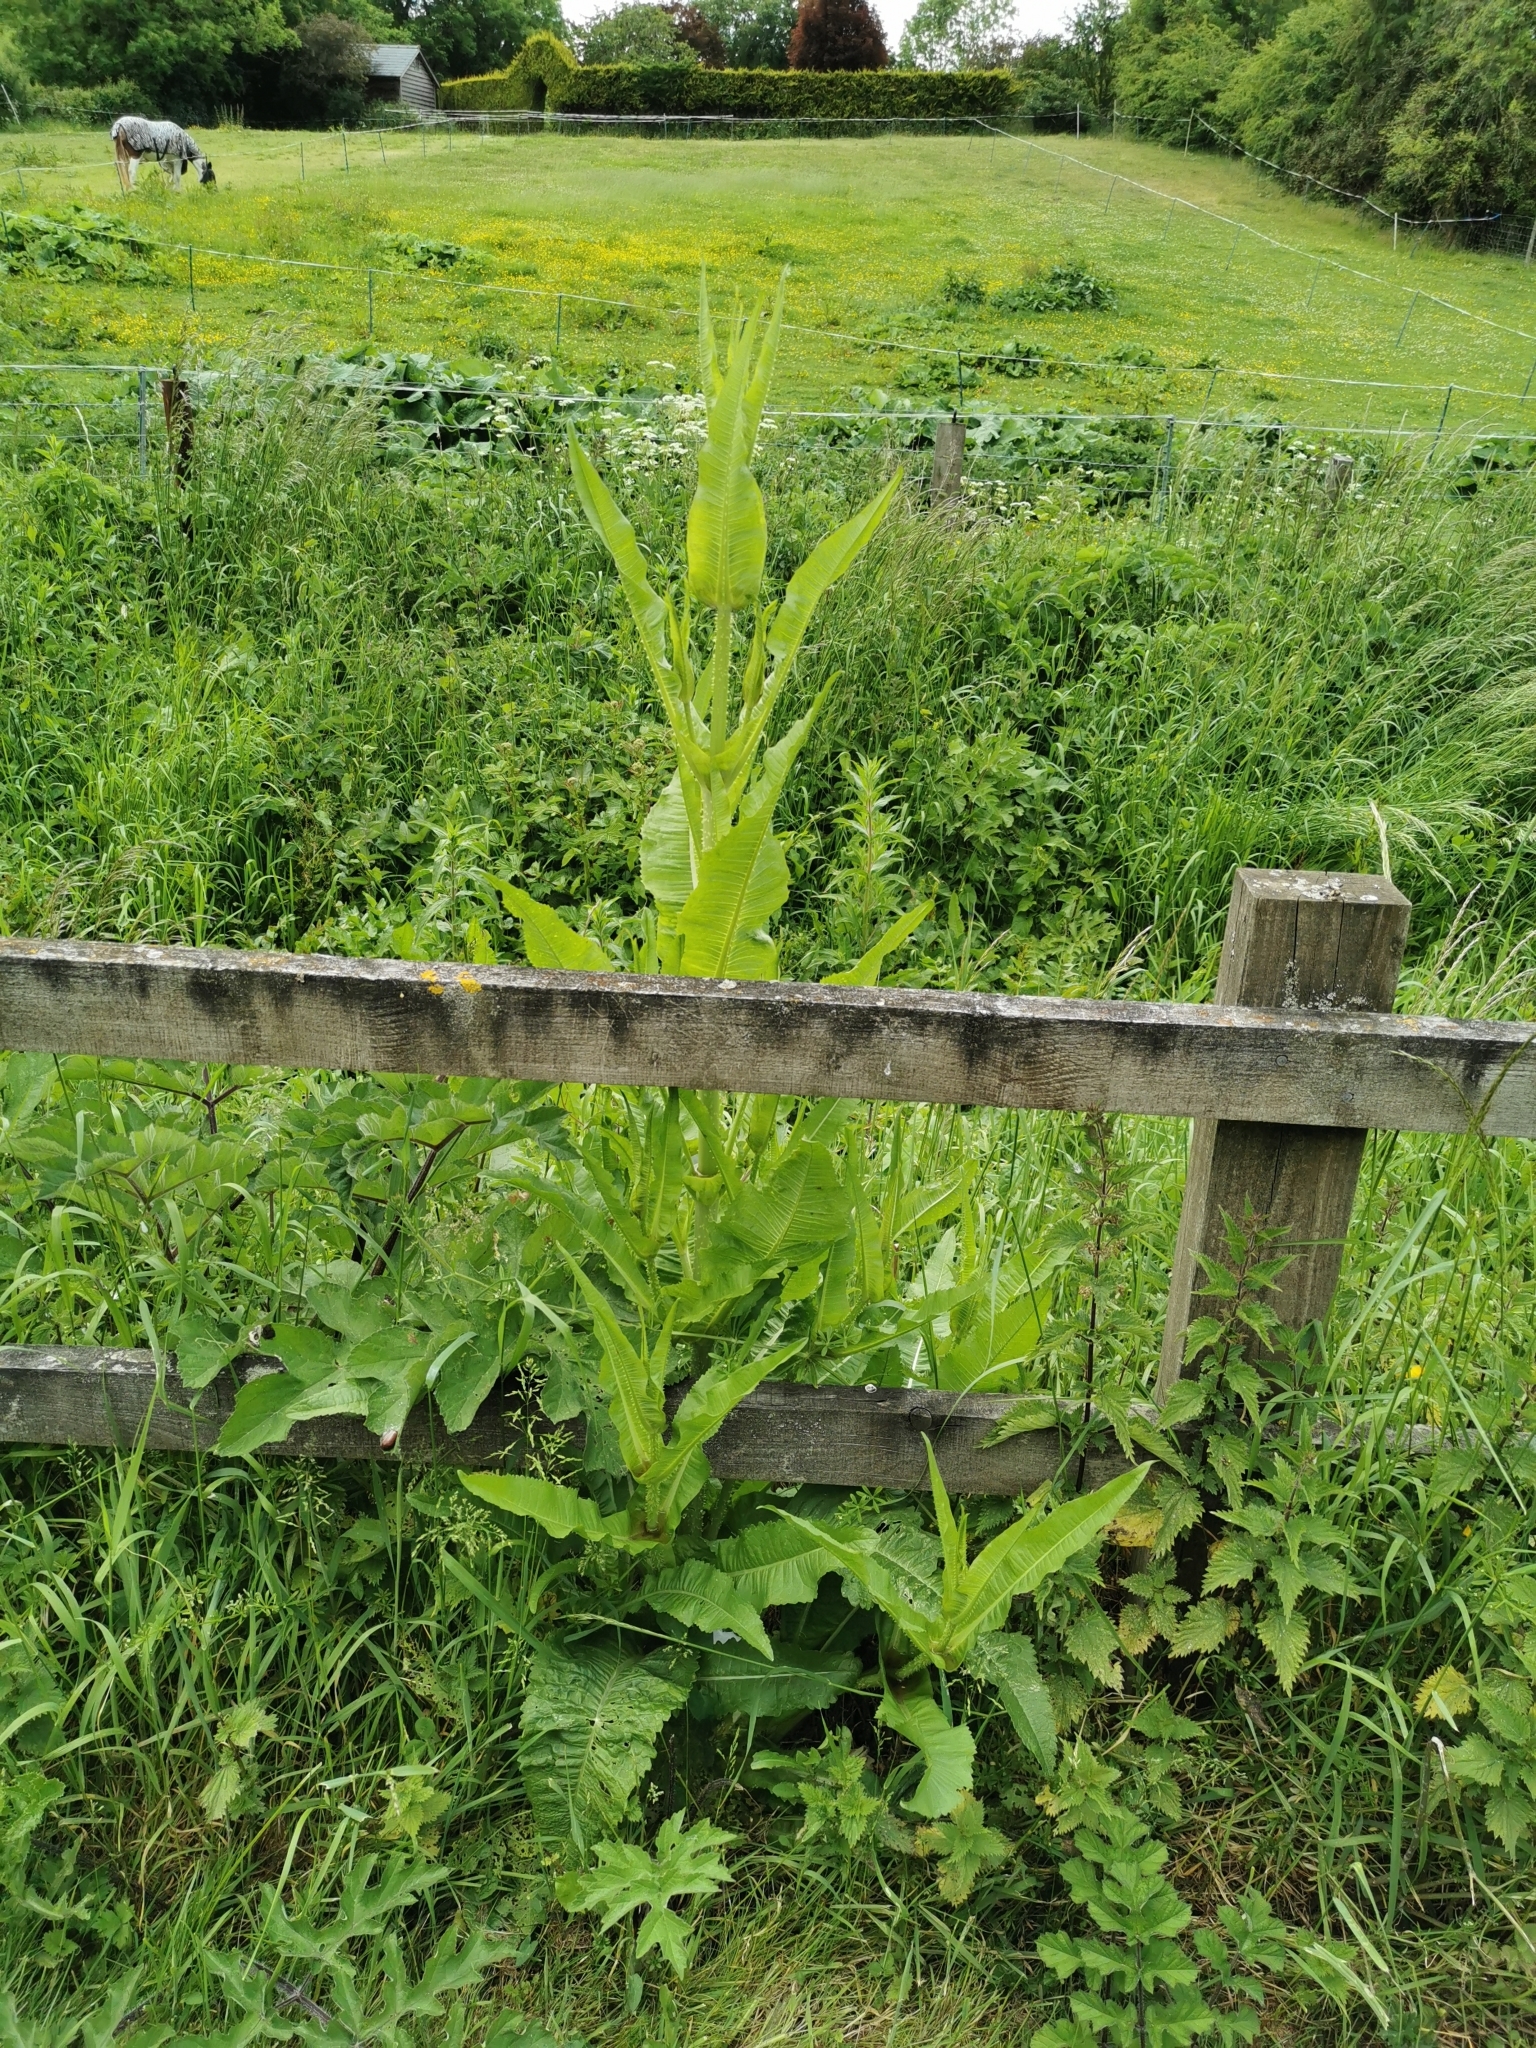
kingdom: Plantae
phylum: Tracheophyta
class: Magnoliopsida
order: Dipsacales
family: Caprifoliaceae
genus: Dipsacus
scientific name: Dipsacus fullonum
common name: Teasel
